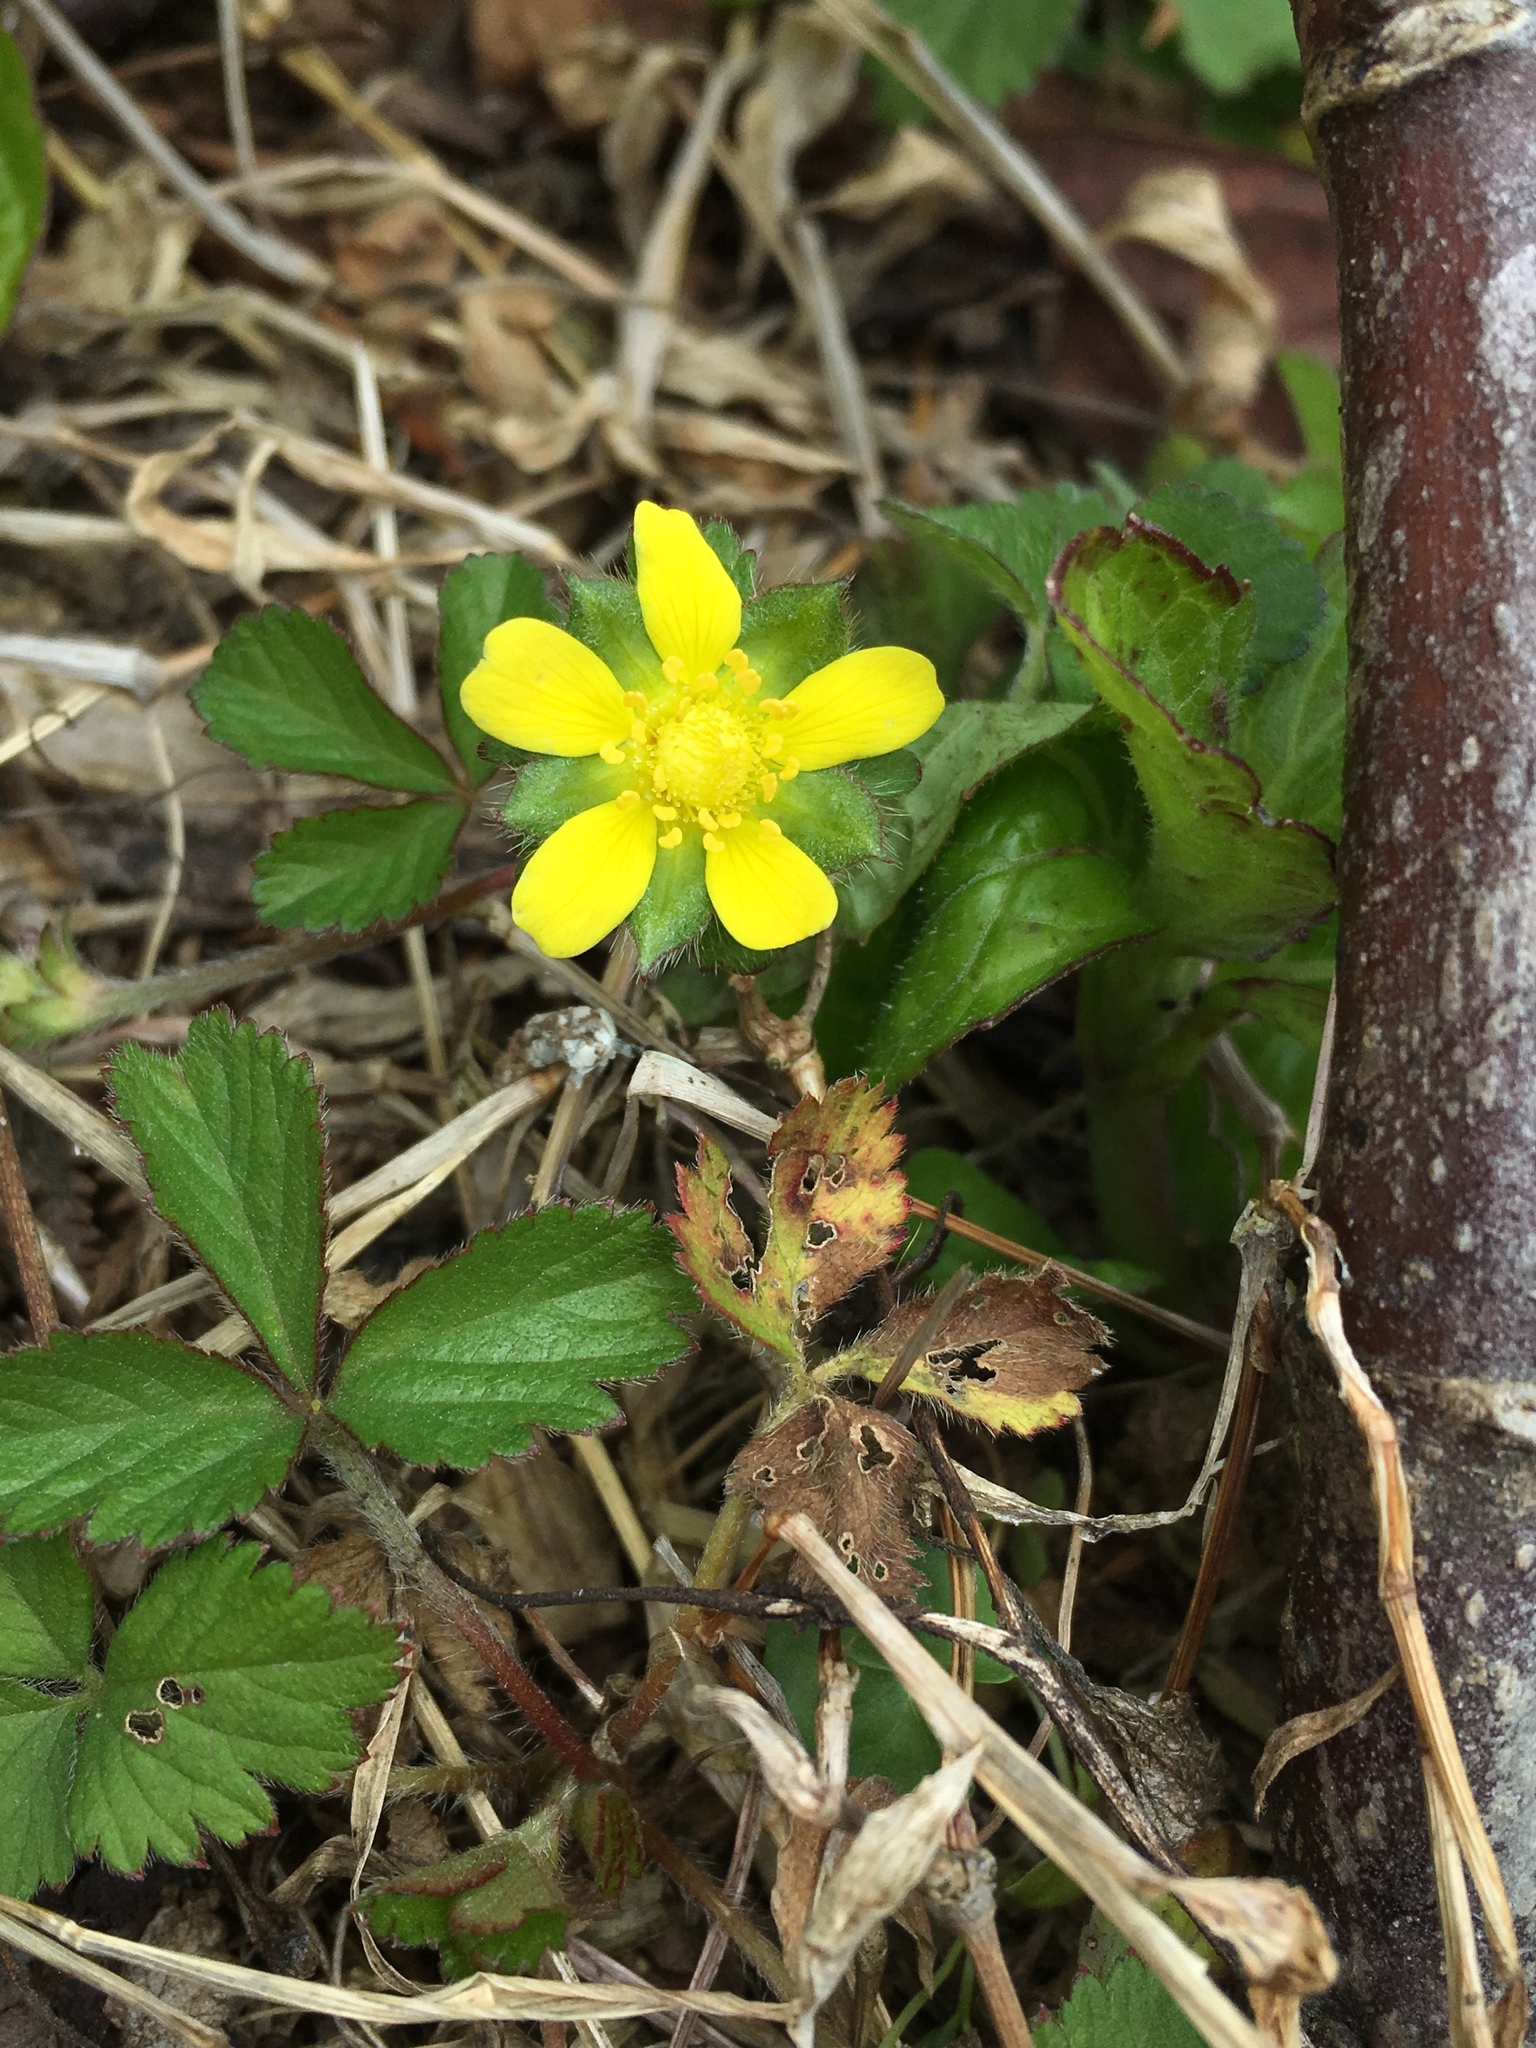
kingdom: Plantae
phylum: Tracheophyta
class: Magnoliopsida
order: Rosales
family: Rosaceae
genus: Potentilla
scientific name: Potentilla indica
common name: Yellow-flowered strawberry
